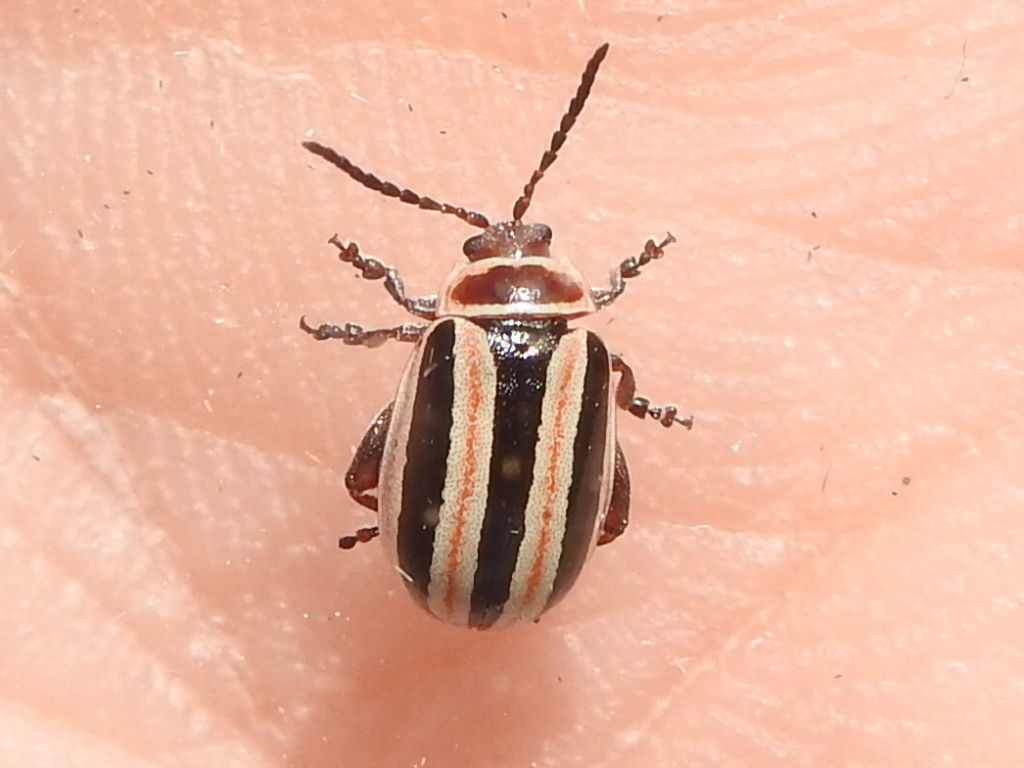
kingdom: Animalia
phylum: Arthropoda
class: Insecta
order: Coleoptera
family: Chrysomelidae
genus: Kuschelina
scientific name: Kuschelina miniata
